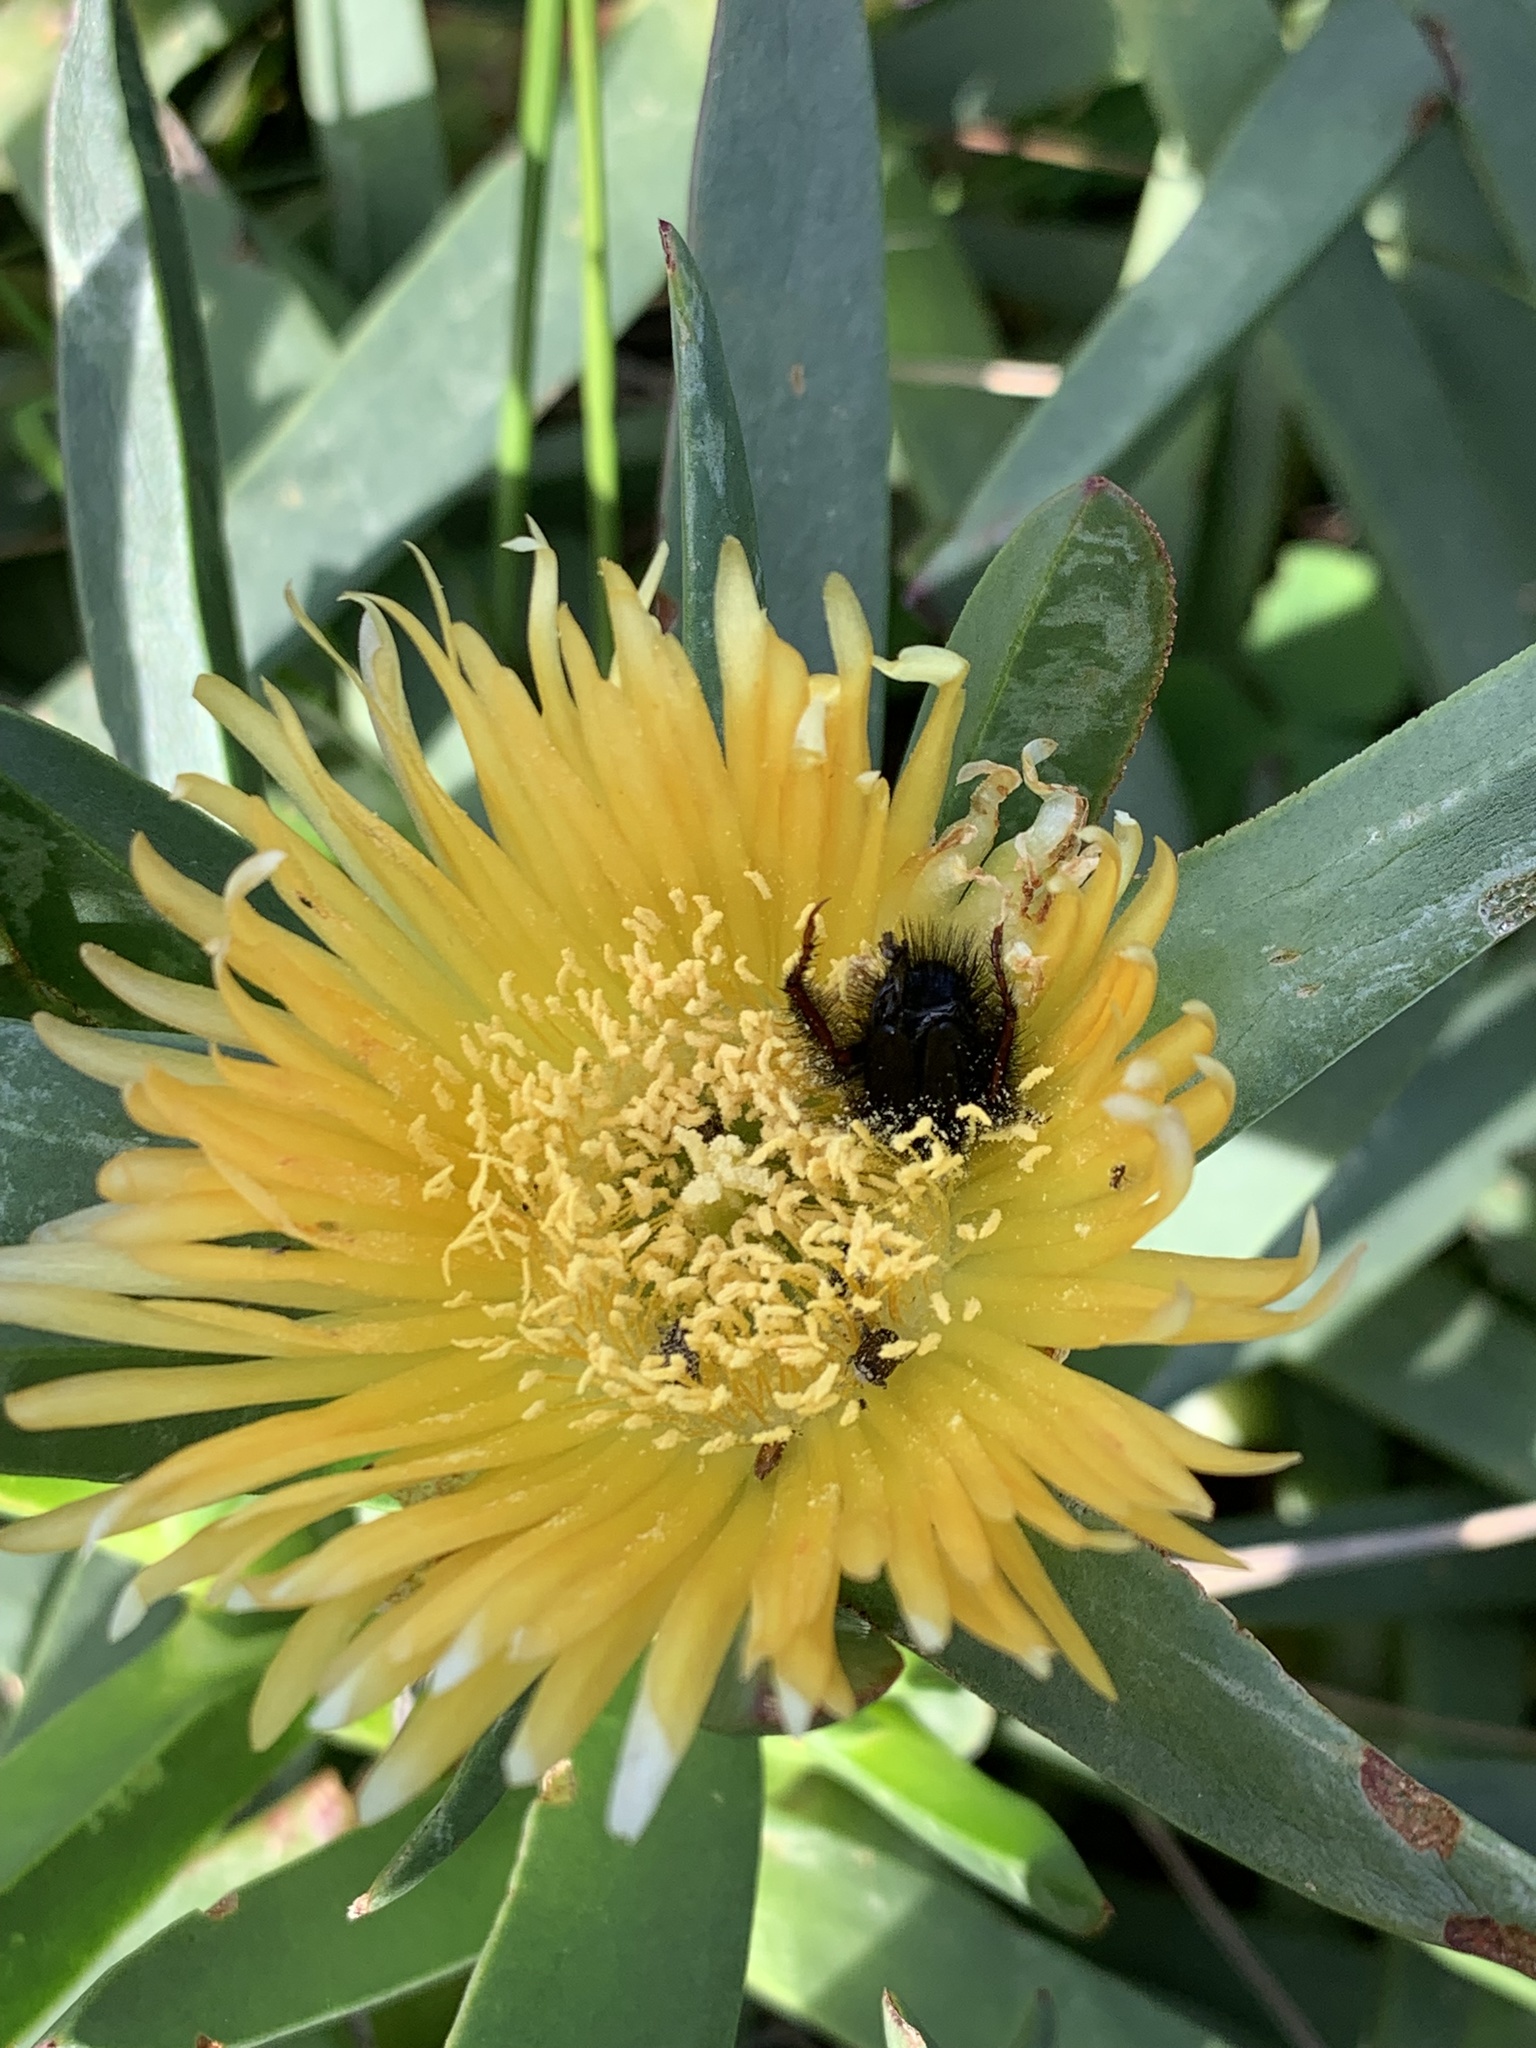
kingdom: Plantae
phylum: Tracheophyta
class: Magnoliopsida
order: Caryophyllales
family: Aizoaceae
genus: Carpobrotus
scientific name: Carpobrotus edulis
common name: Hottentot-fig
